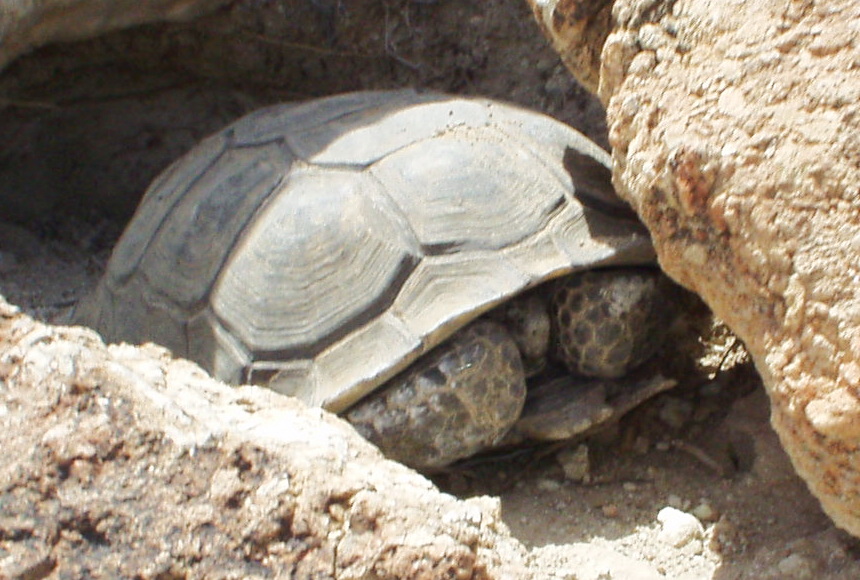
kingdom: Animalia
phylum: Chordata
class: Testudines
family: Testudinidae
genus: Gopherus
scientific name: Gopherus agassizii
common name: Mojave desert tortoise
